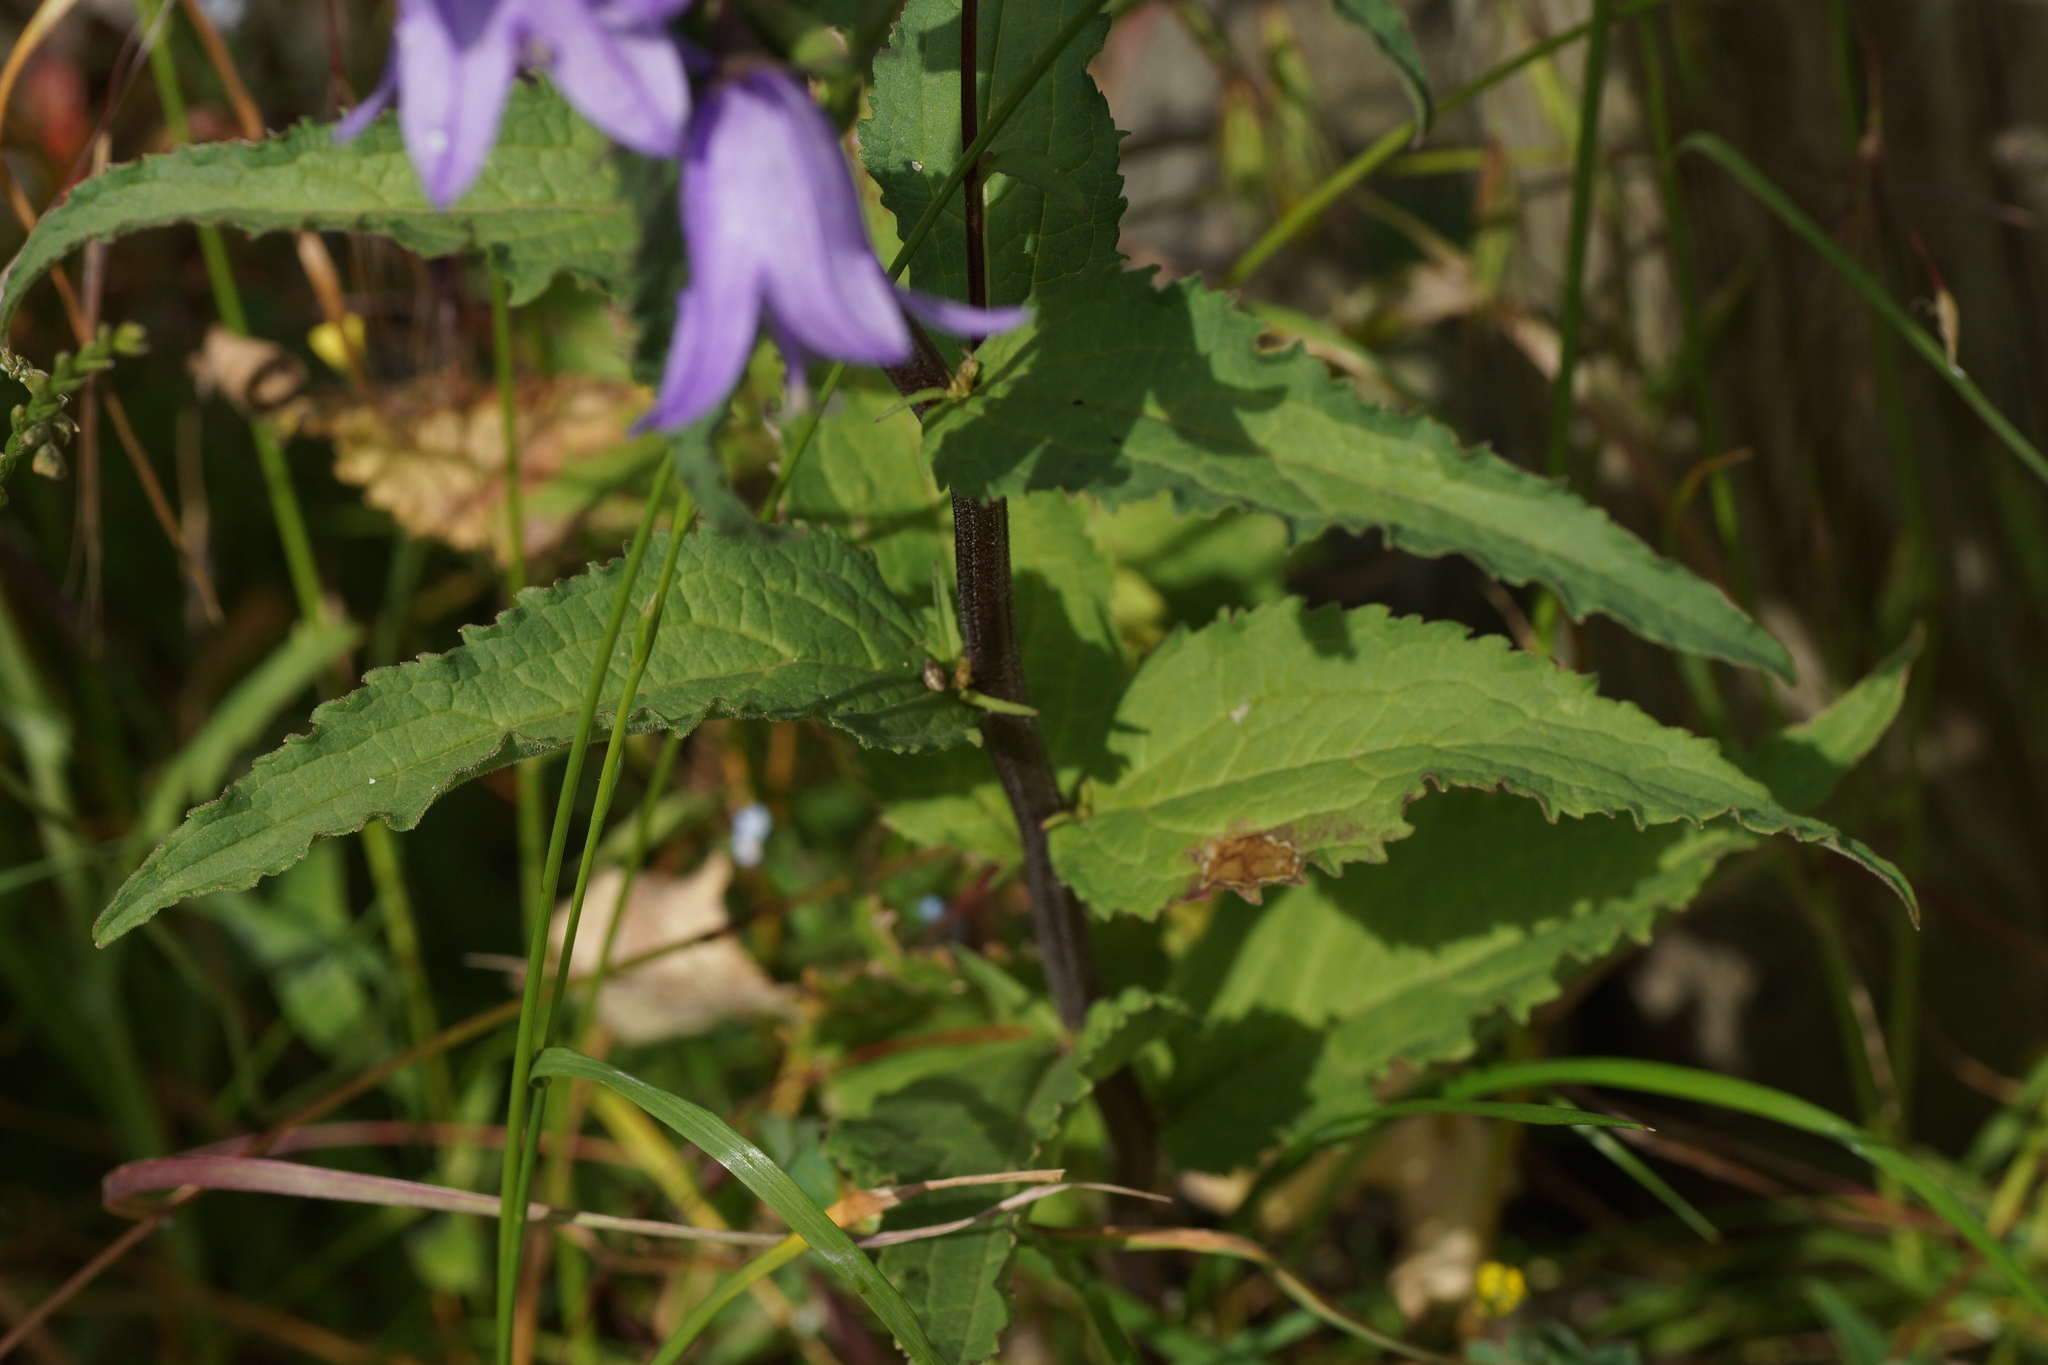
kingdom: Plantae
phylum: Tracheophyta
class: Magnoliopsida
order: Asterales
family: Campanulaceae
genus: Campanula
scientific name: Campanula rapunculoides
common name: Creeping bellflower
